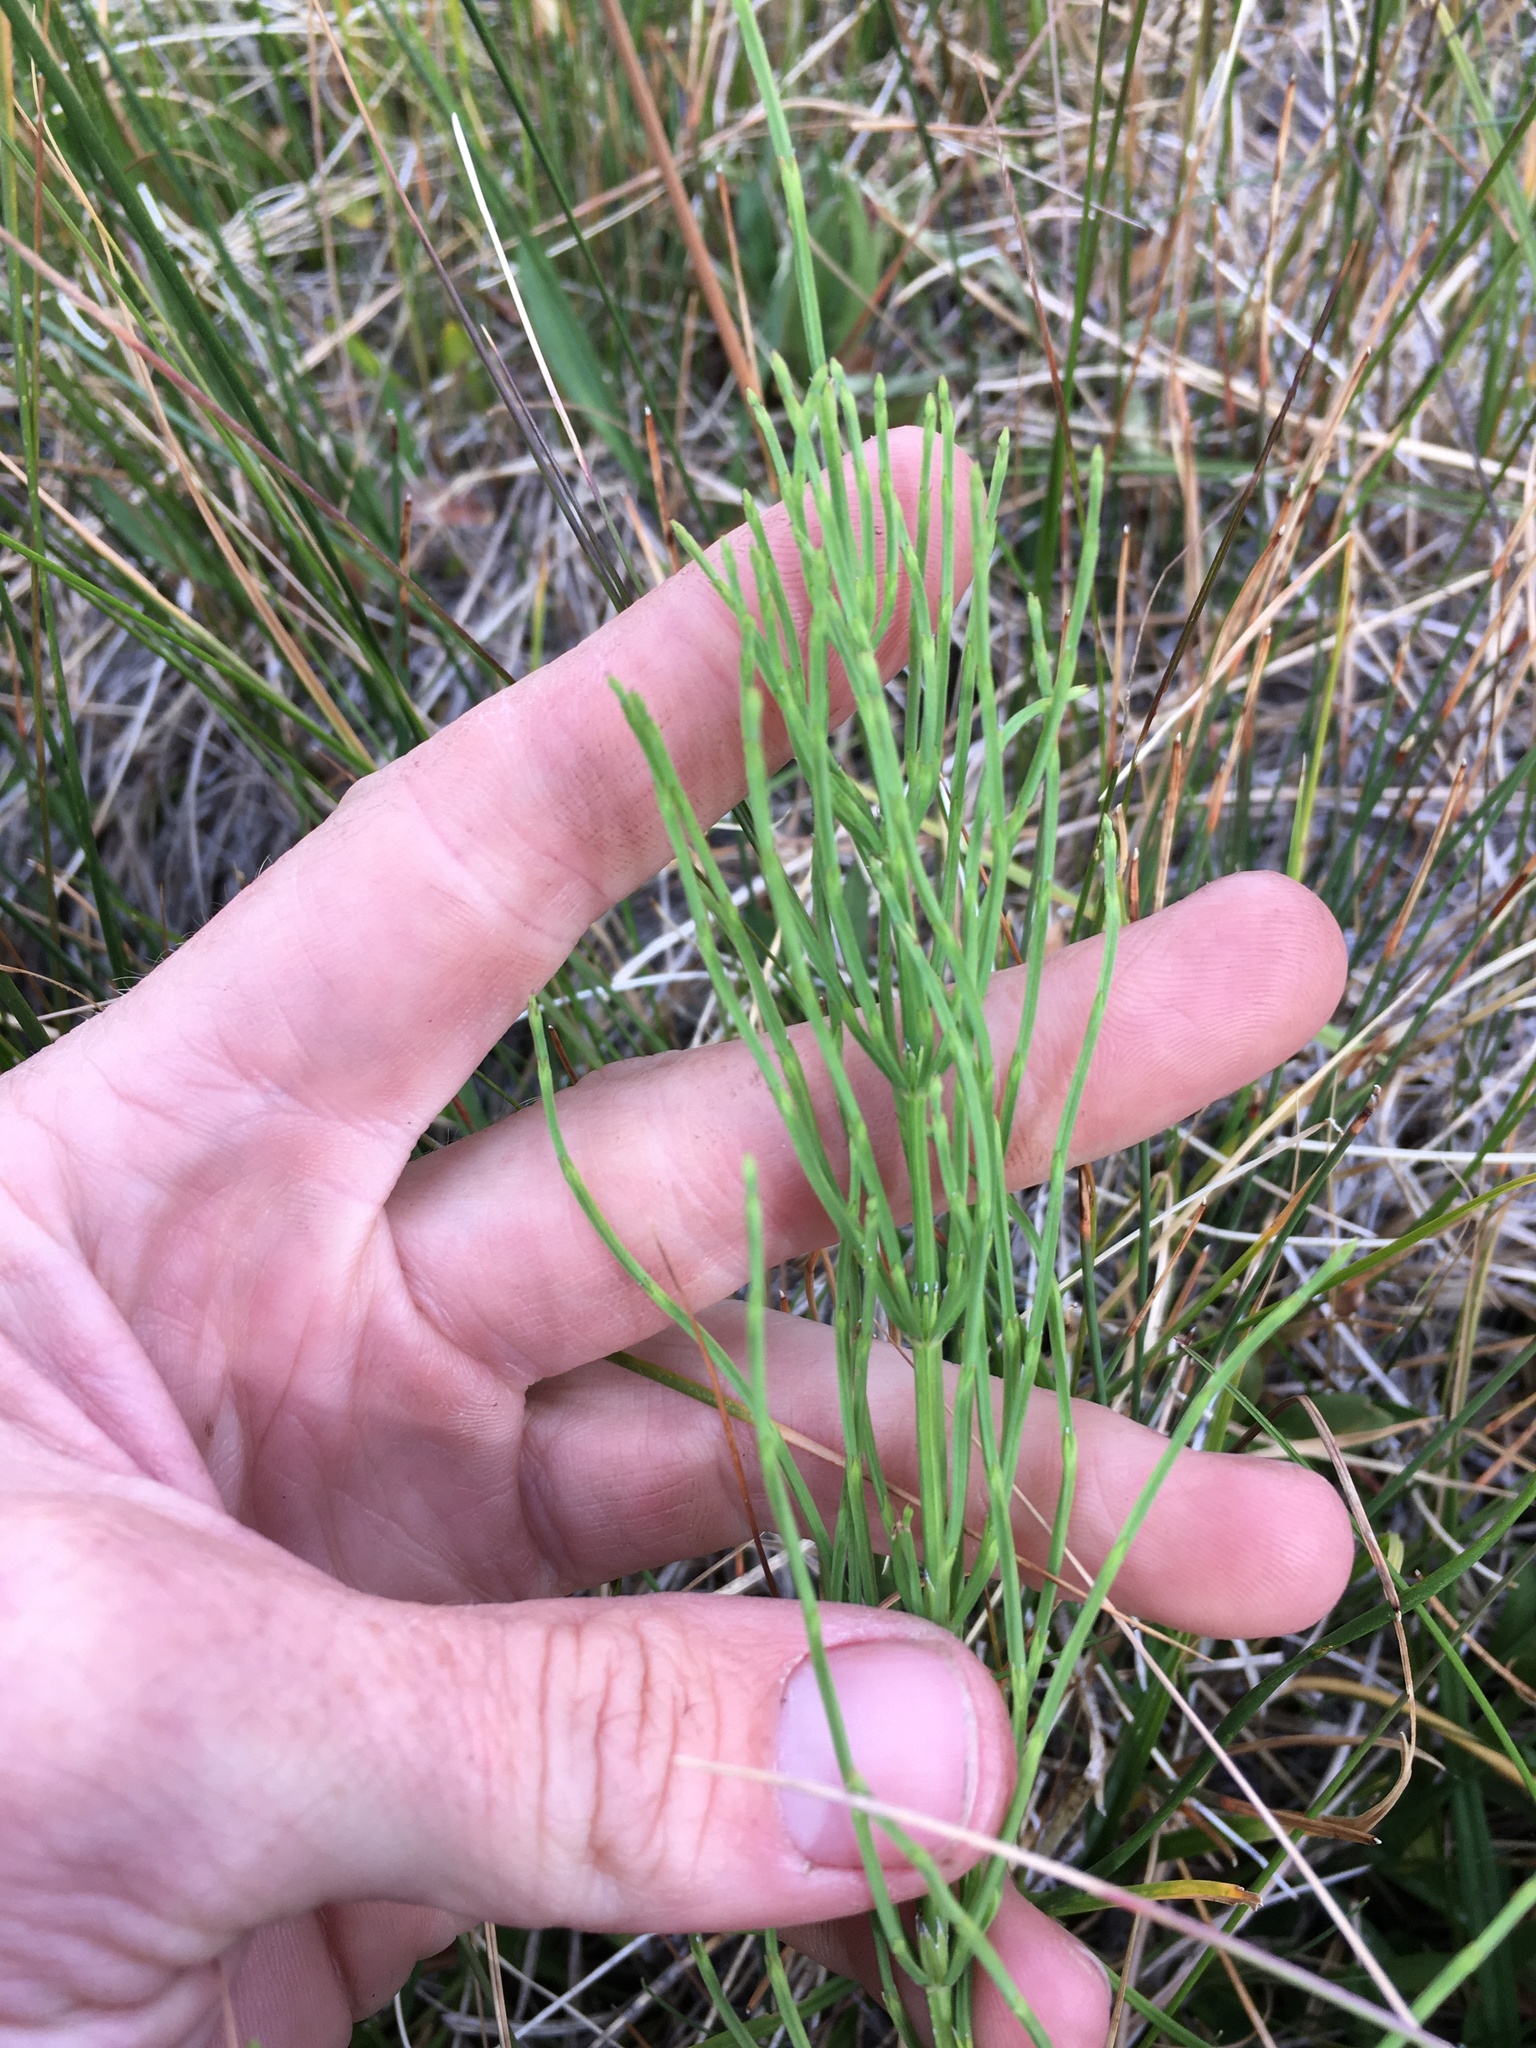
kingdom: Plantae
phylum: Tracheophyta
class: Polypodiopsida
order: Equisetales
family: Equisetaceae
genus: Equisetum
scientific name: Equisetum arvense
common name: Field horsetail
